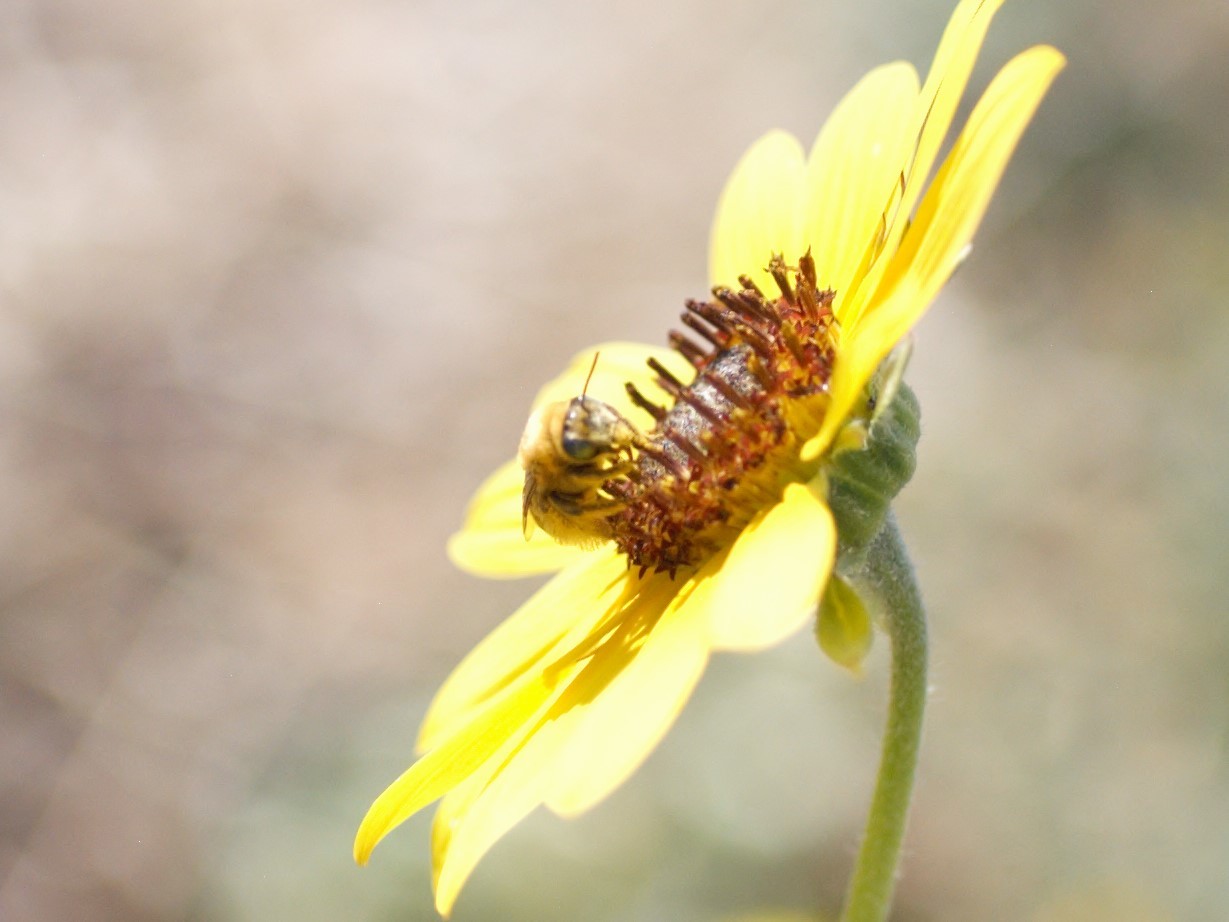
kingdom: Animalia
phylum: Arthropoda
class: Insecta
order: Hymenoptera
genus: Eumelissodes
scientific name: Eumelissodes
